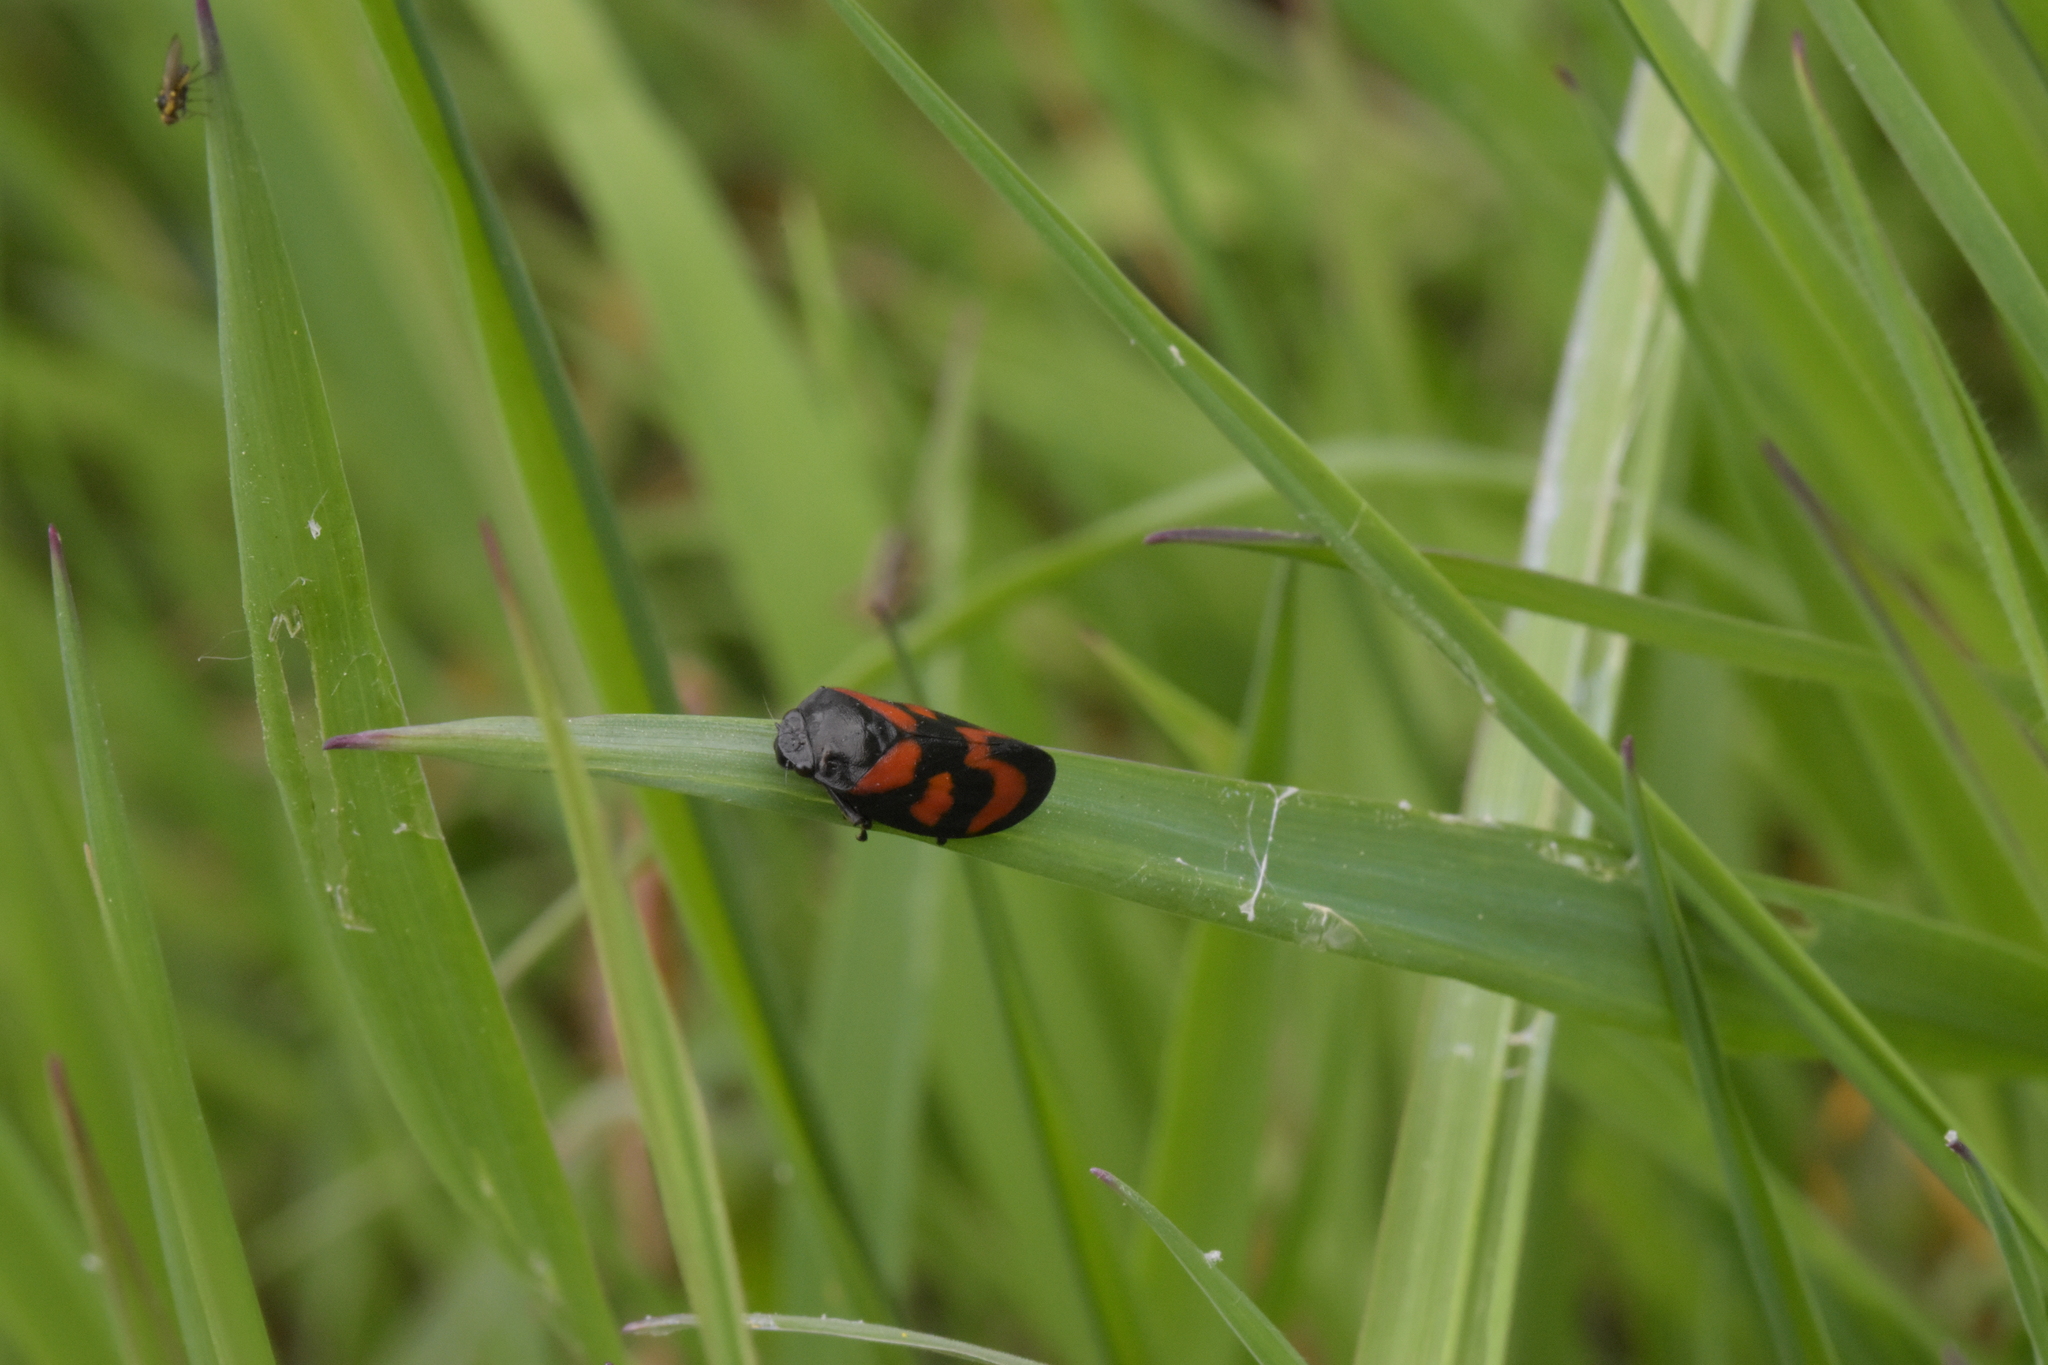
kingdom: Animalia
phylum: Arthropoda
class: Insecta
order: Hemiptera
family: Cercopidae
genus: Cercopis
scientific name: Cercopis vulnerata
